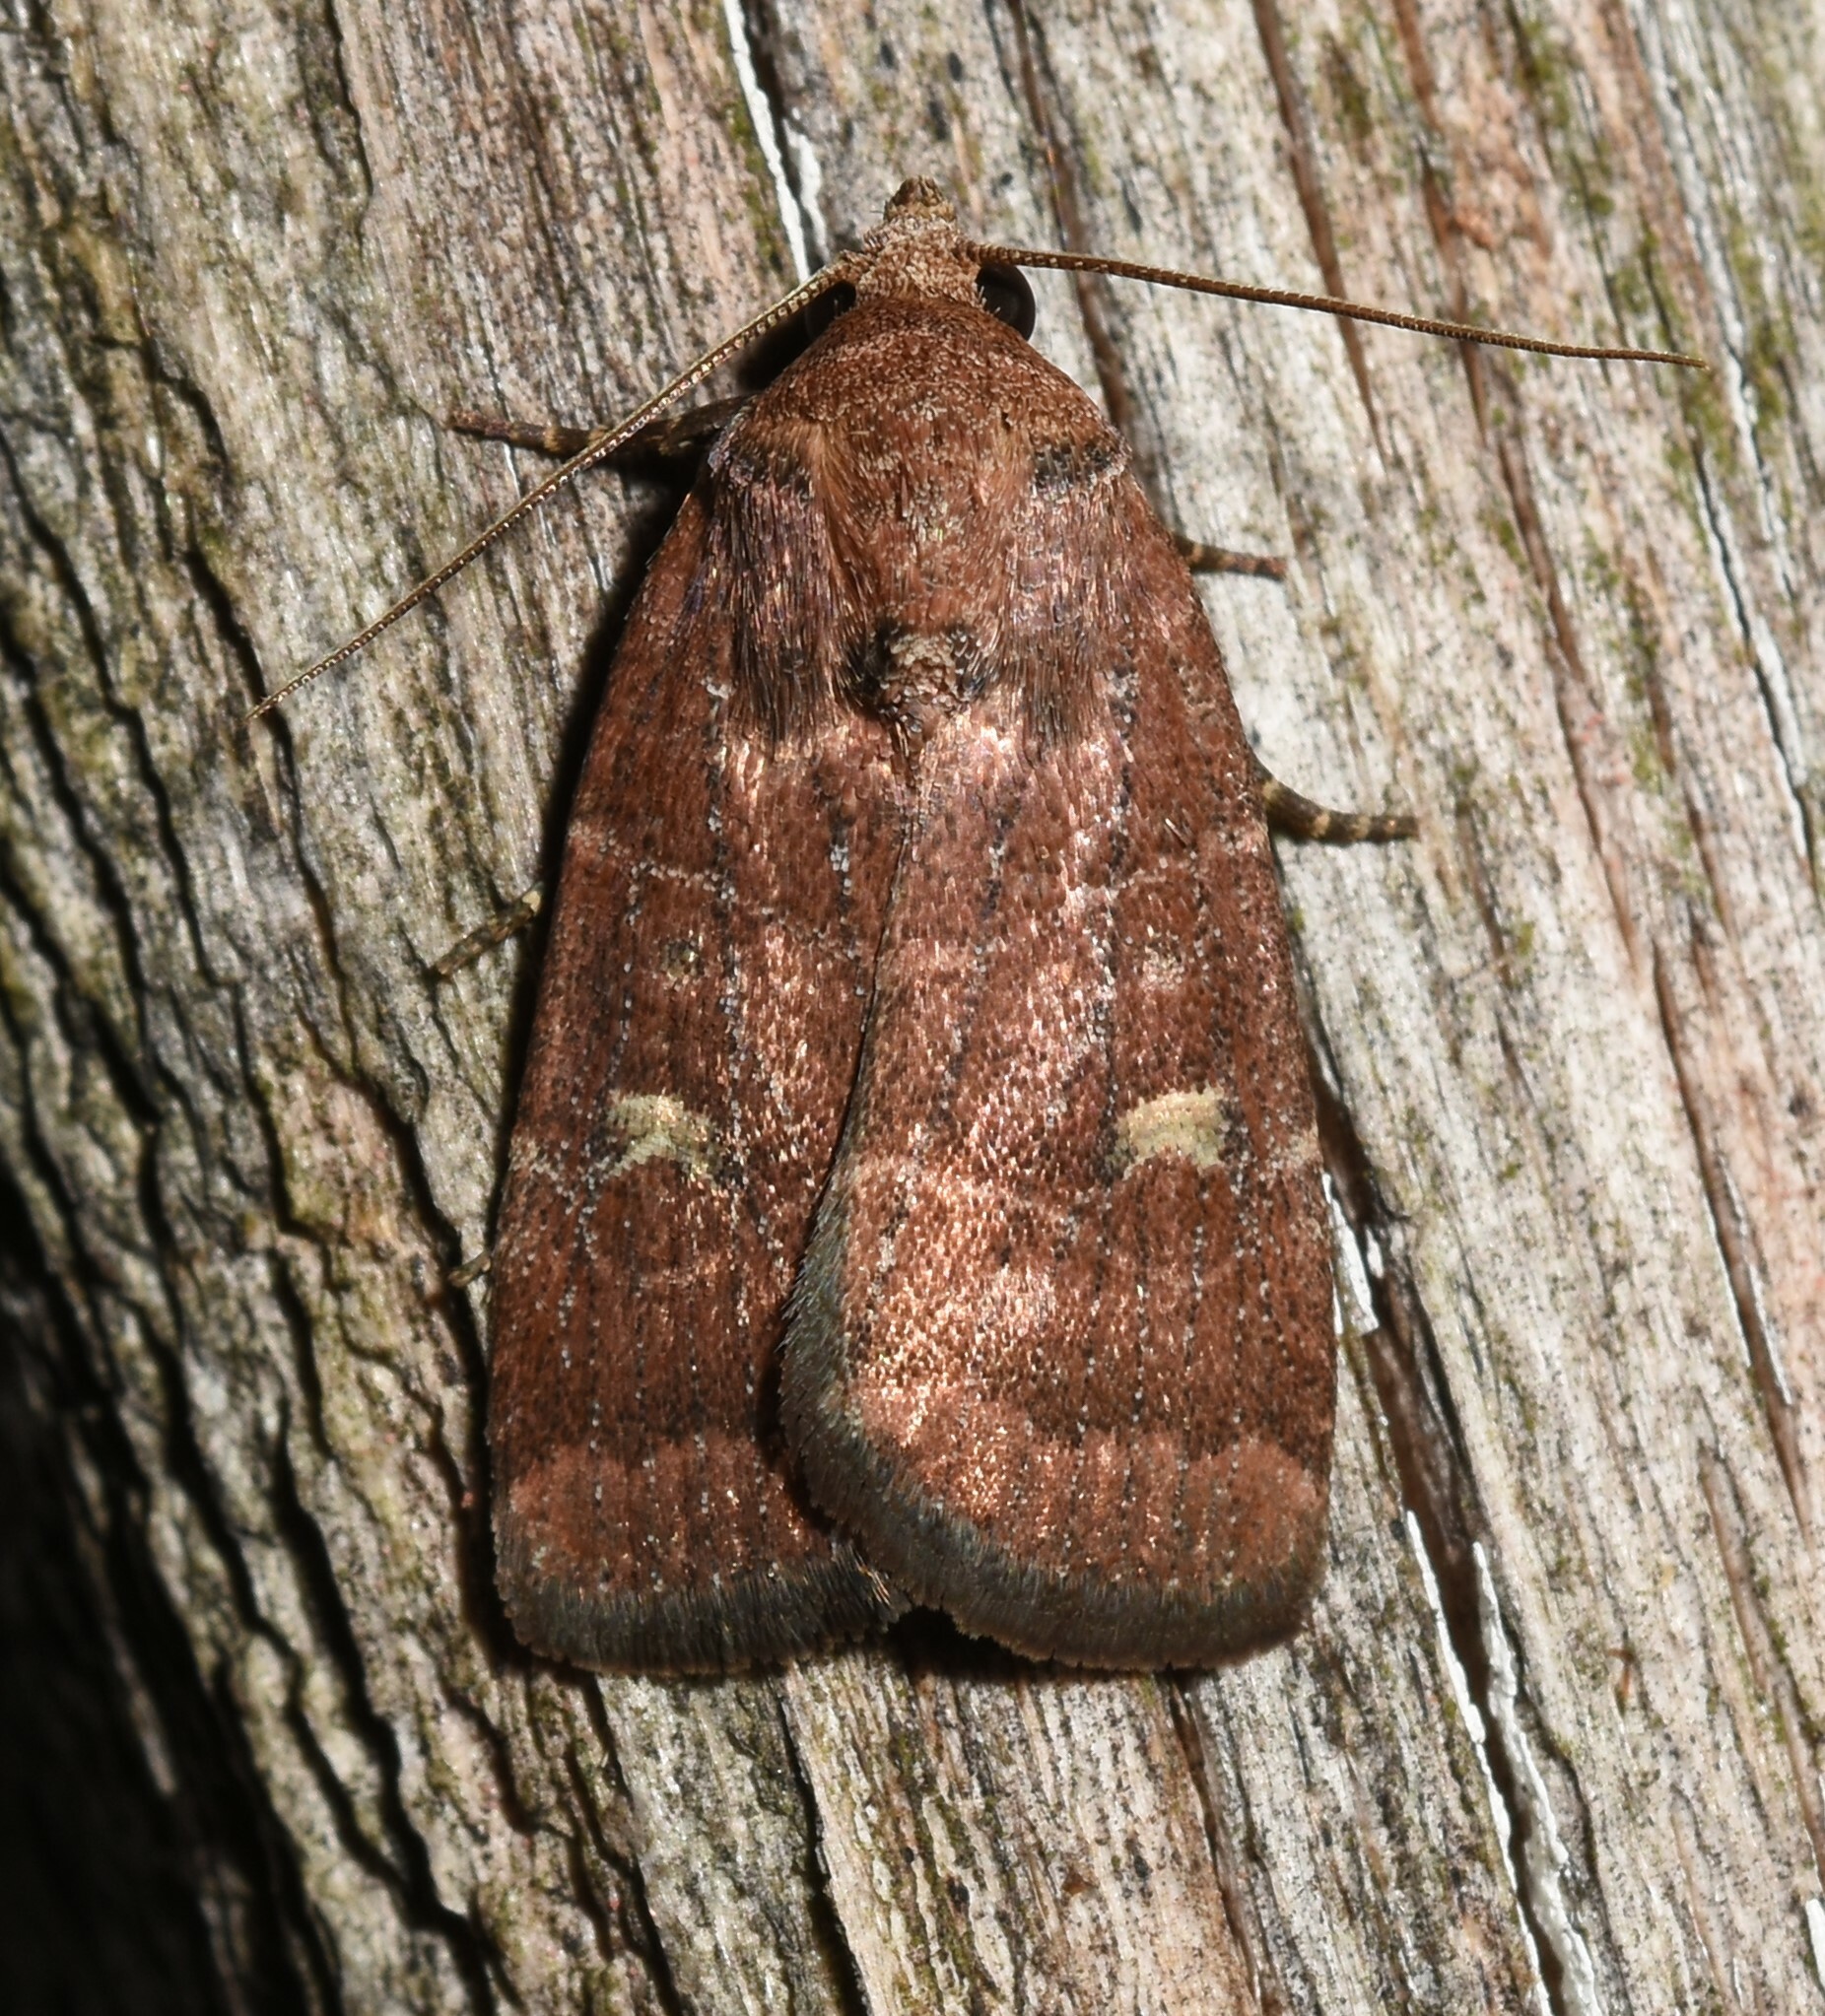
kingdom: Animalia
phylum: Arthropoda
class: Insecta
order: Lepidoptera
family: Noctuidae
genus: Elaphria
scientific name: Elaphria grata
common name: Grateful midget moth
